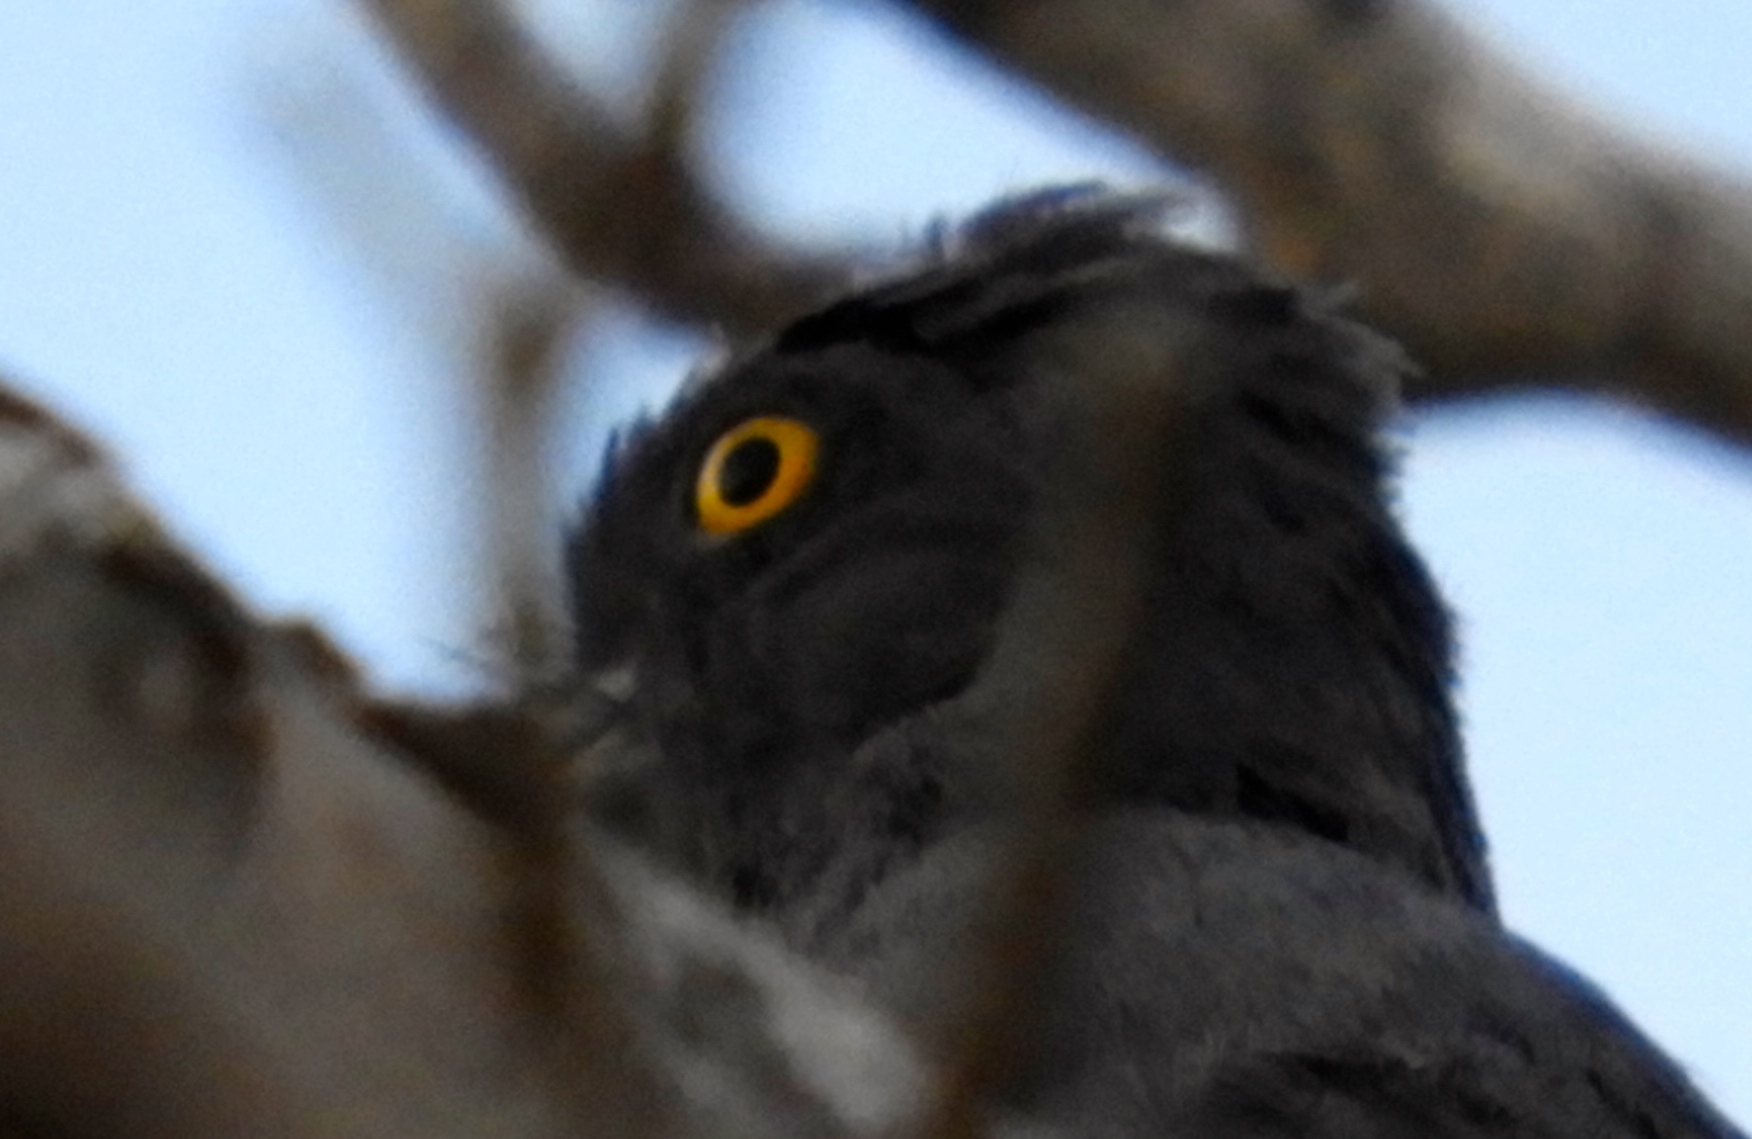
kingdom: Animalia
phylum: Chordata
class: Aves
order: Trogoniformes
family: Trogonidae
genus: Trogon
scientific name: Trogon elegans
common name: Elegant trogon
